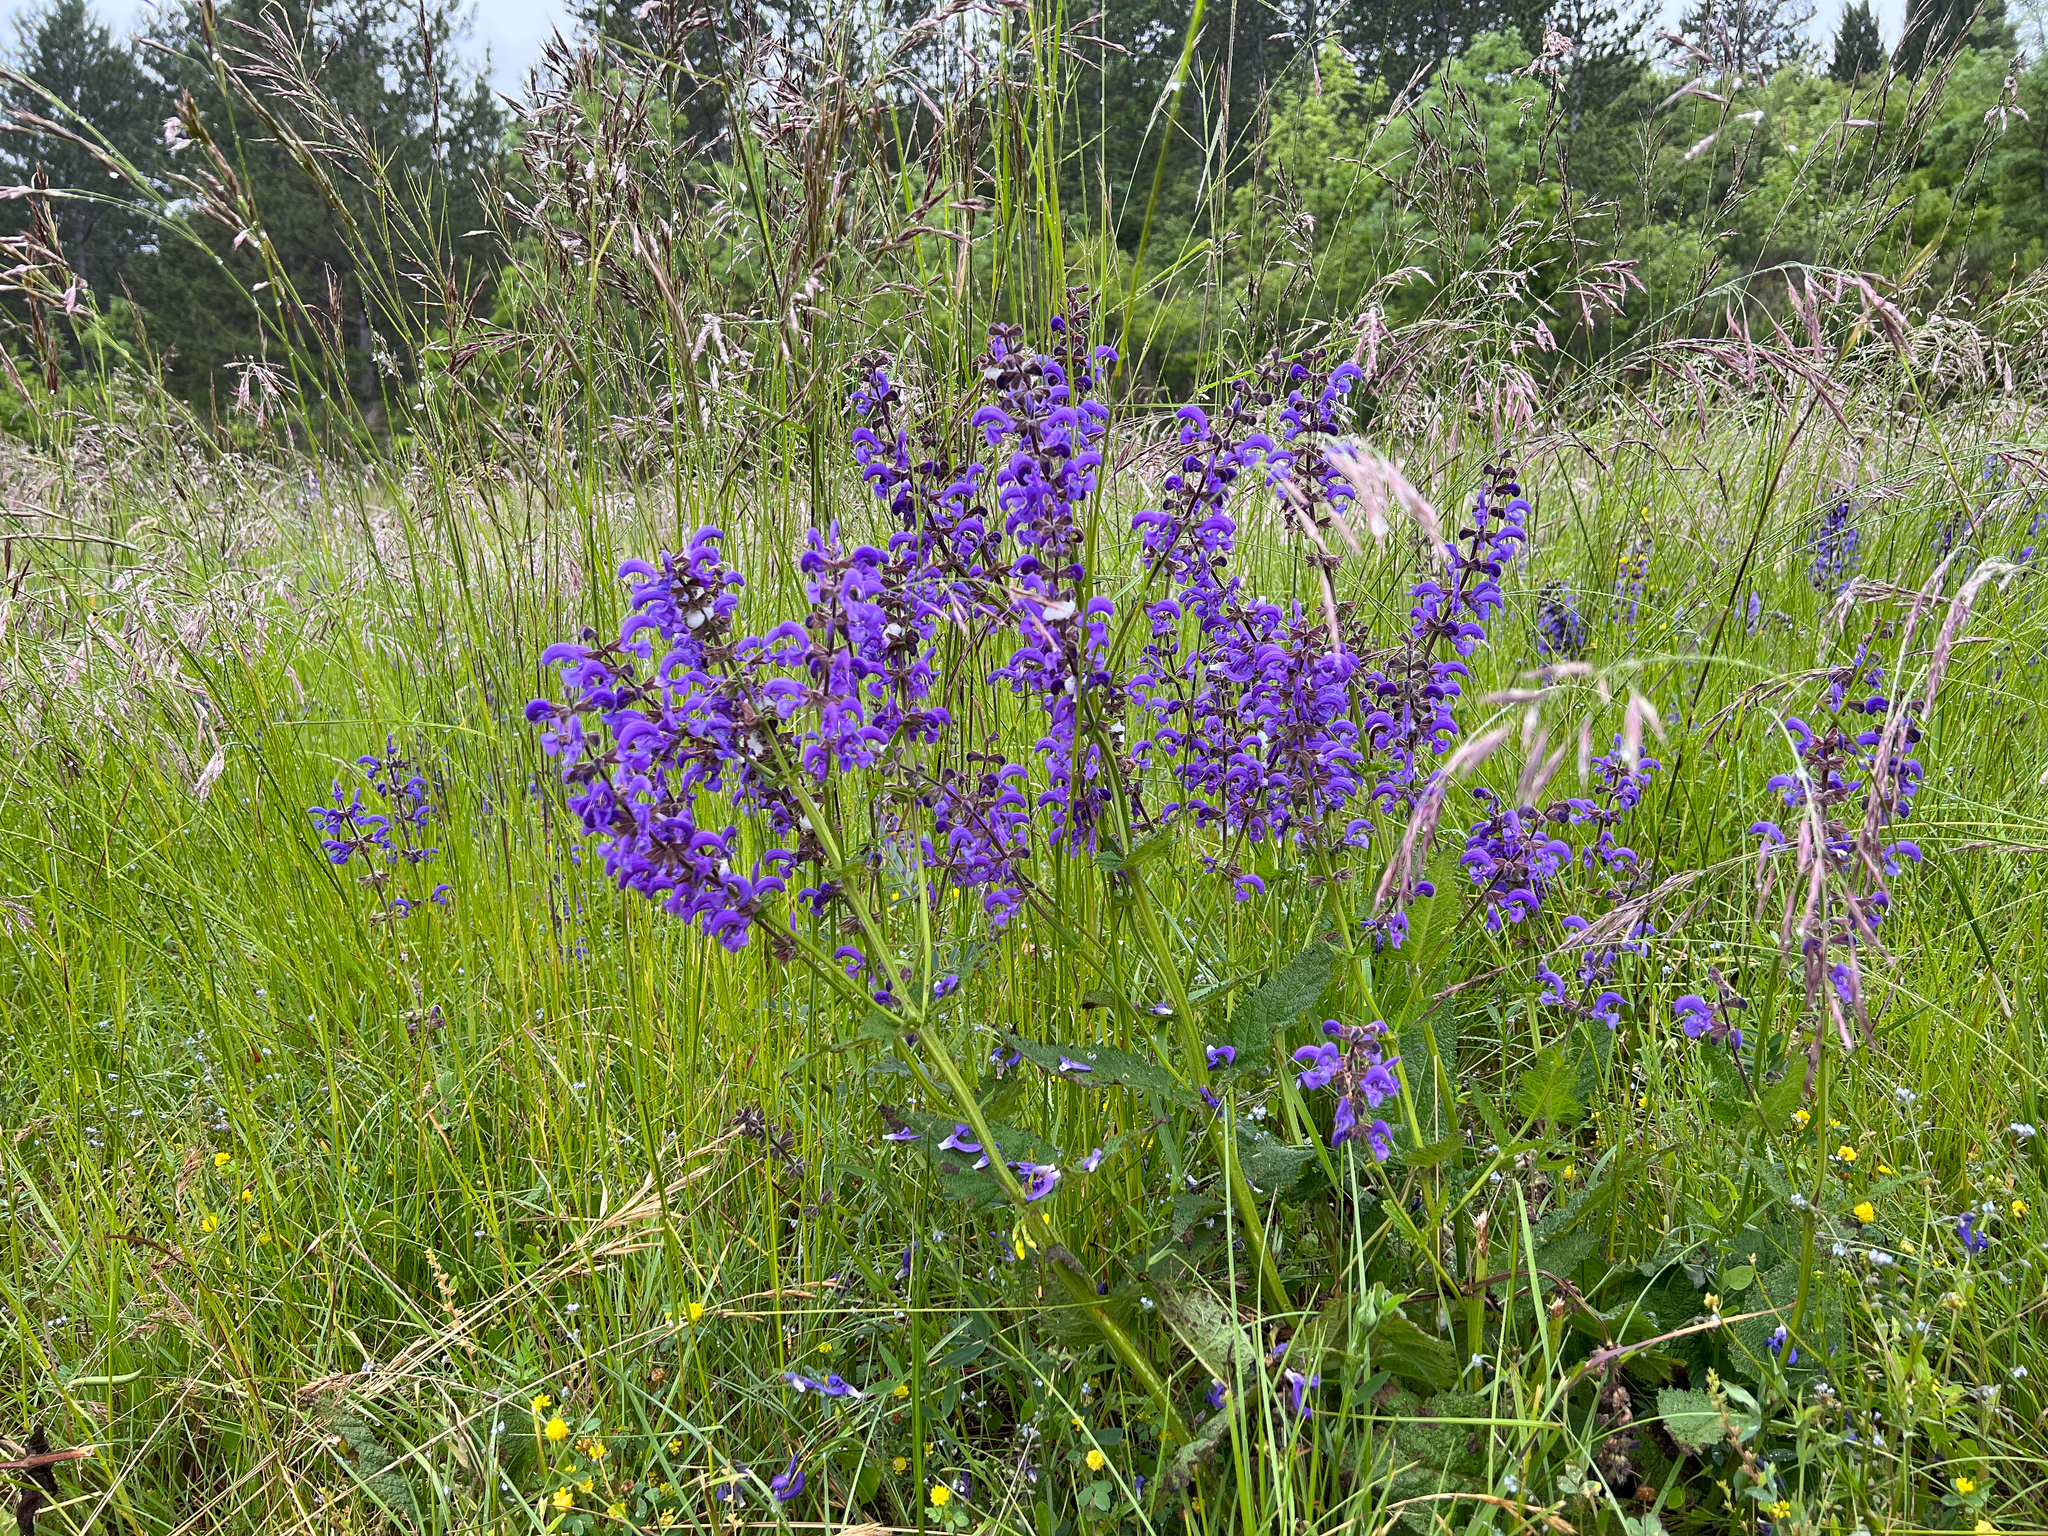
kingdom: Plantae
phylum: Tracheophyta
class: Magnoliopsida
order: Lamiales
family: Lamiaceae
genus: Salvia
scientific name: Salvia pratensis
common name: Meadow sage
